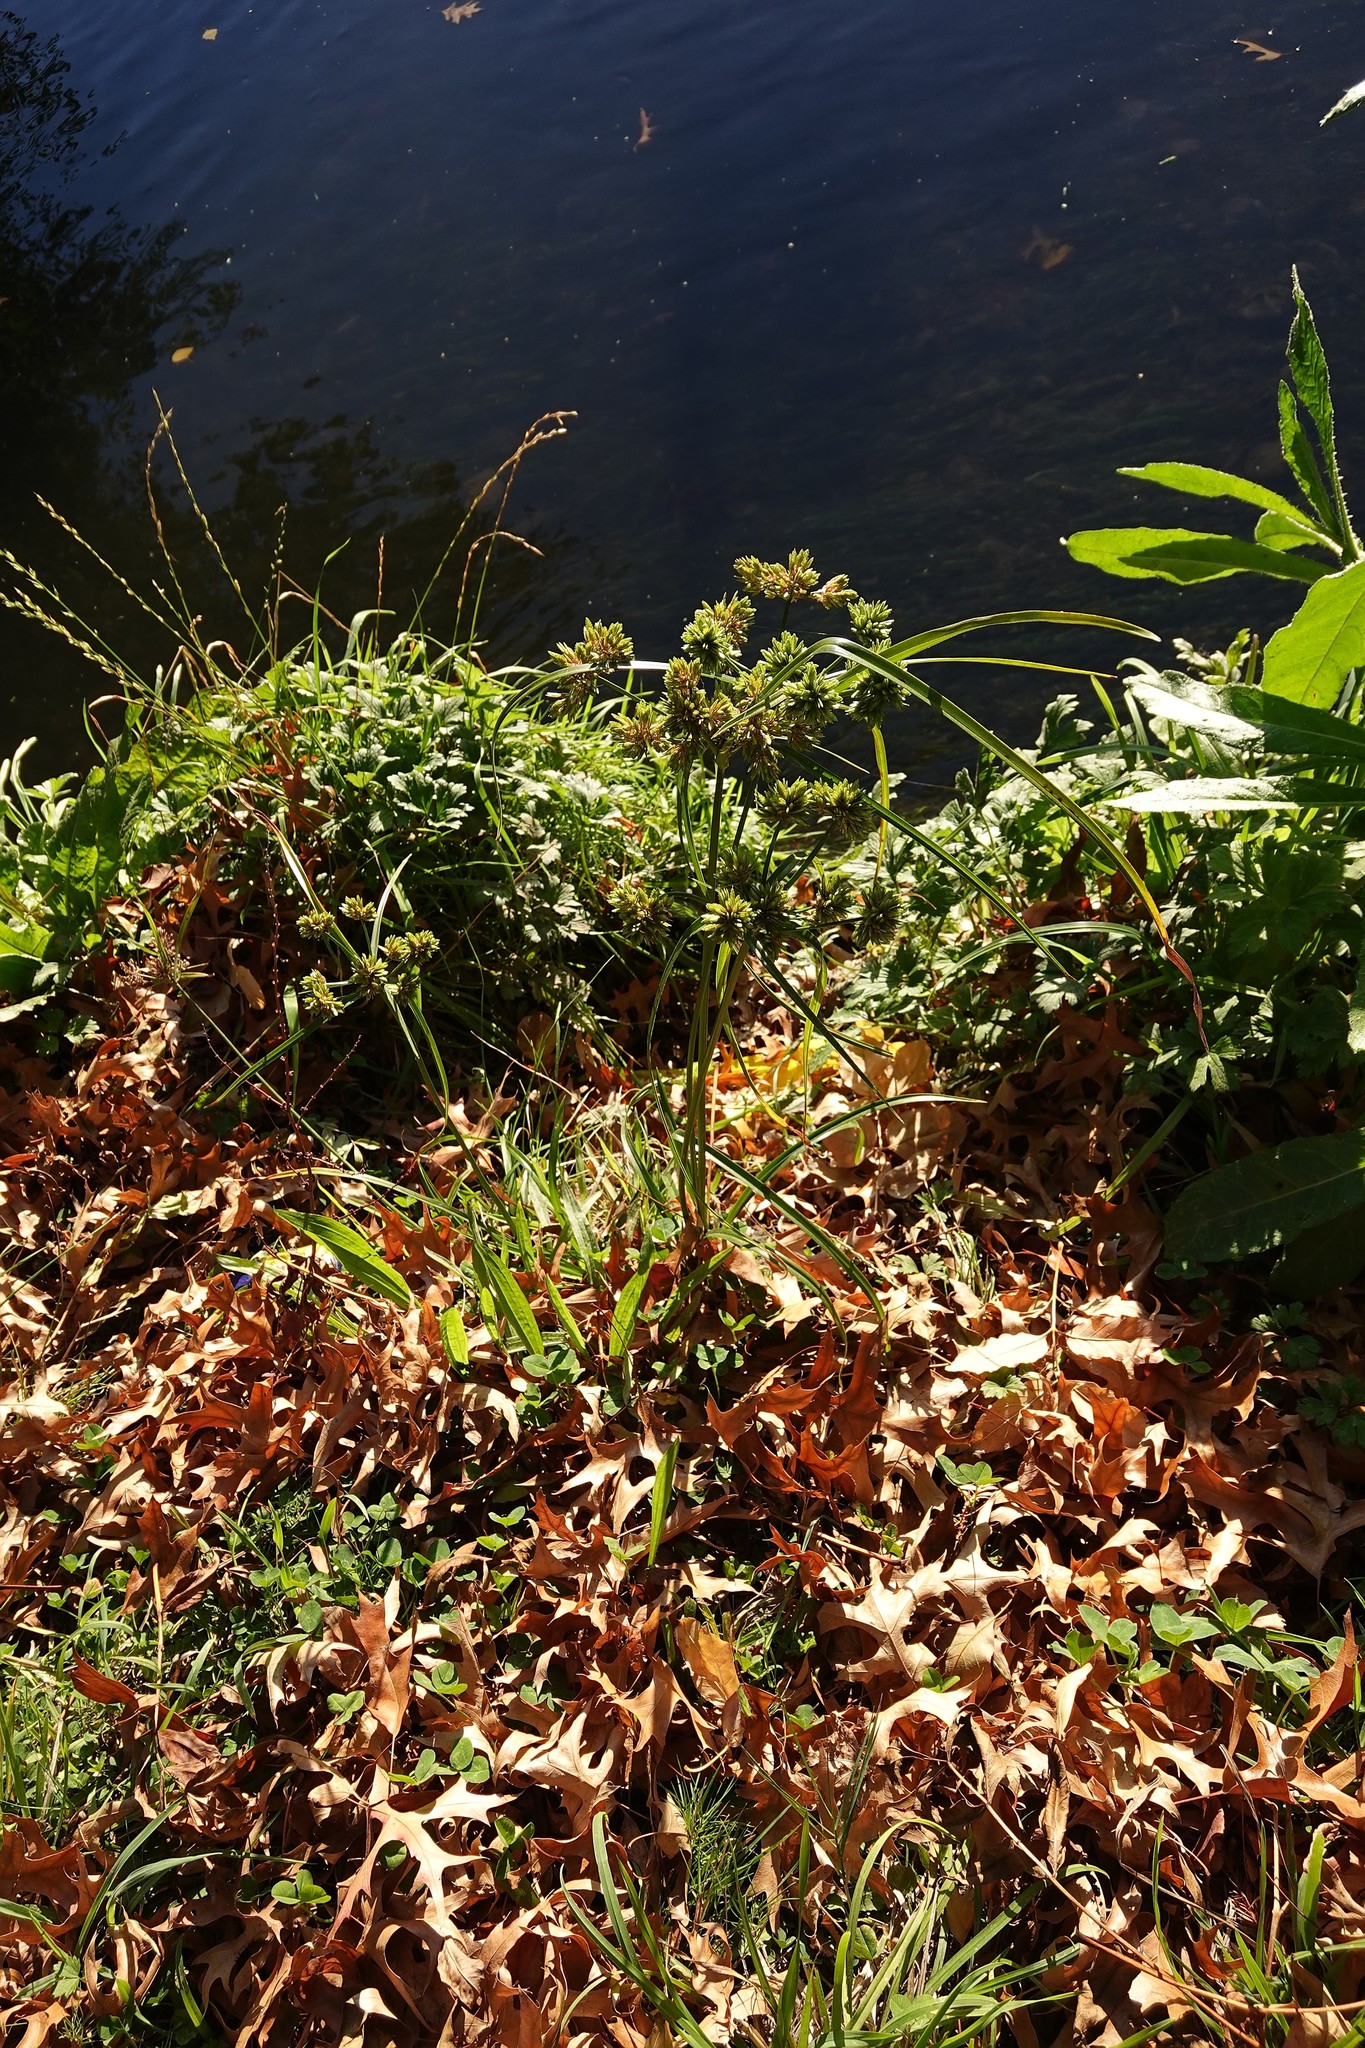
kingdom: Plantae
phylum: Tracheophyta
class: Liliopsida
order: Poales
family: Cyperaceae
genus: Cyperus
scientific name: Cyperus eragrostis
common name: Tall flatsedge
